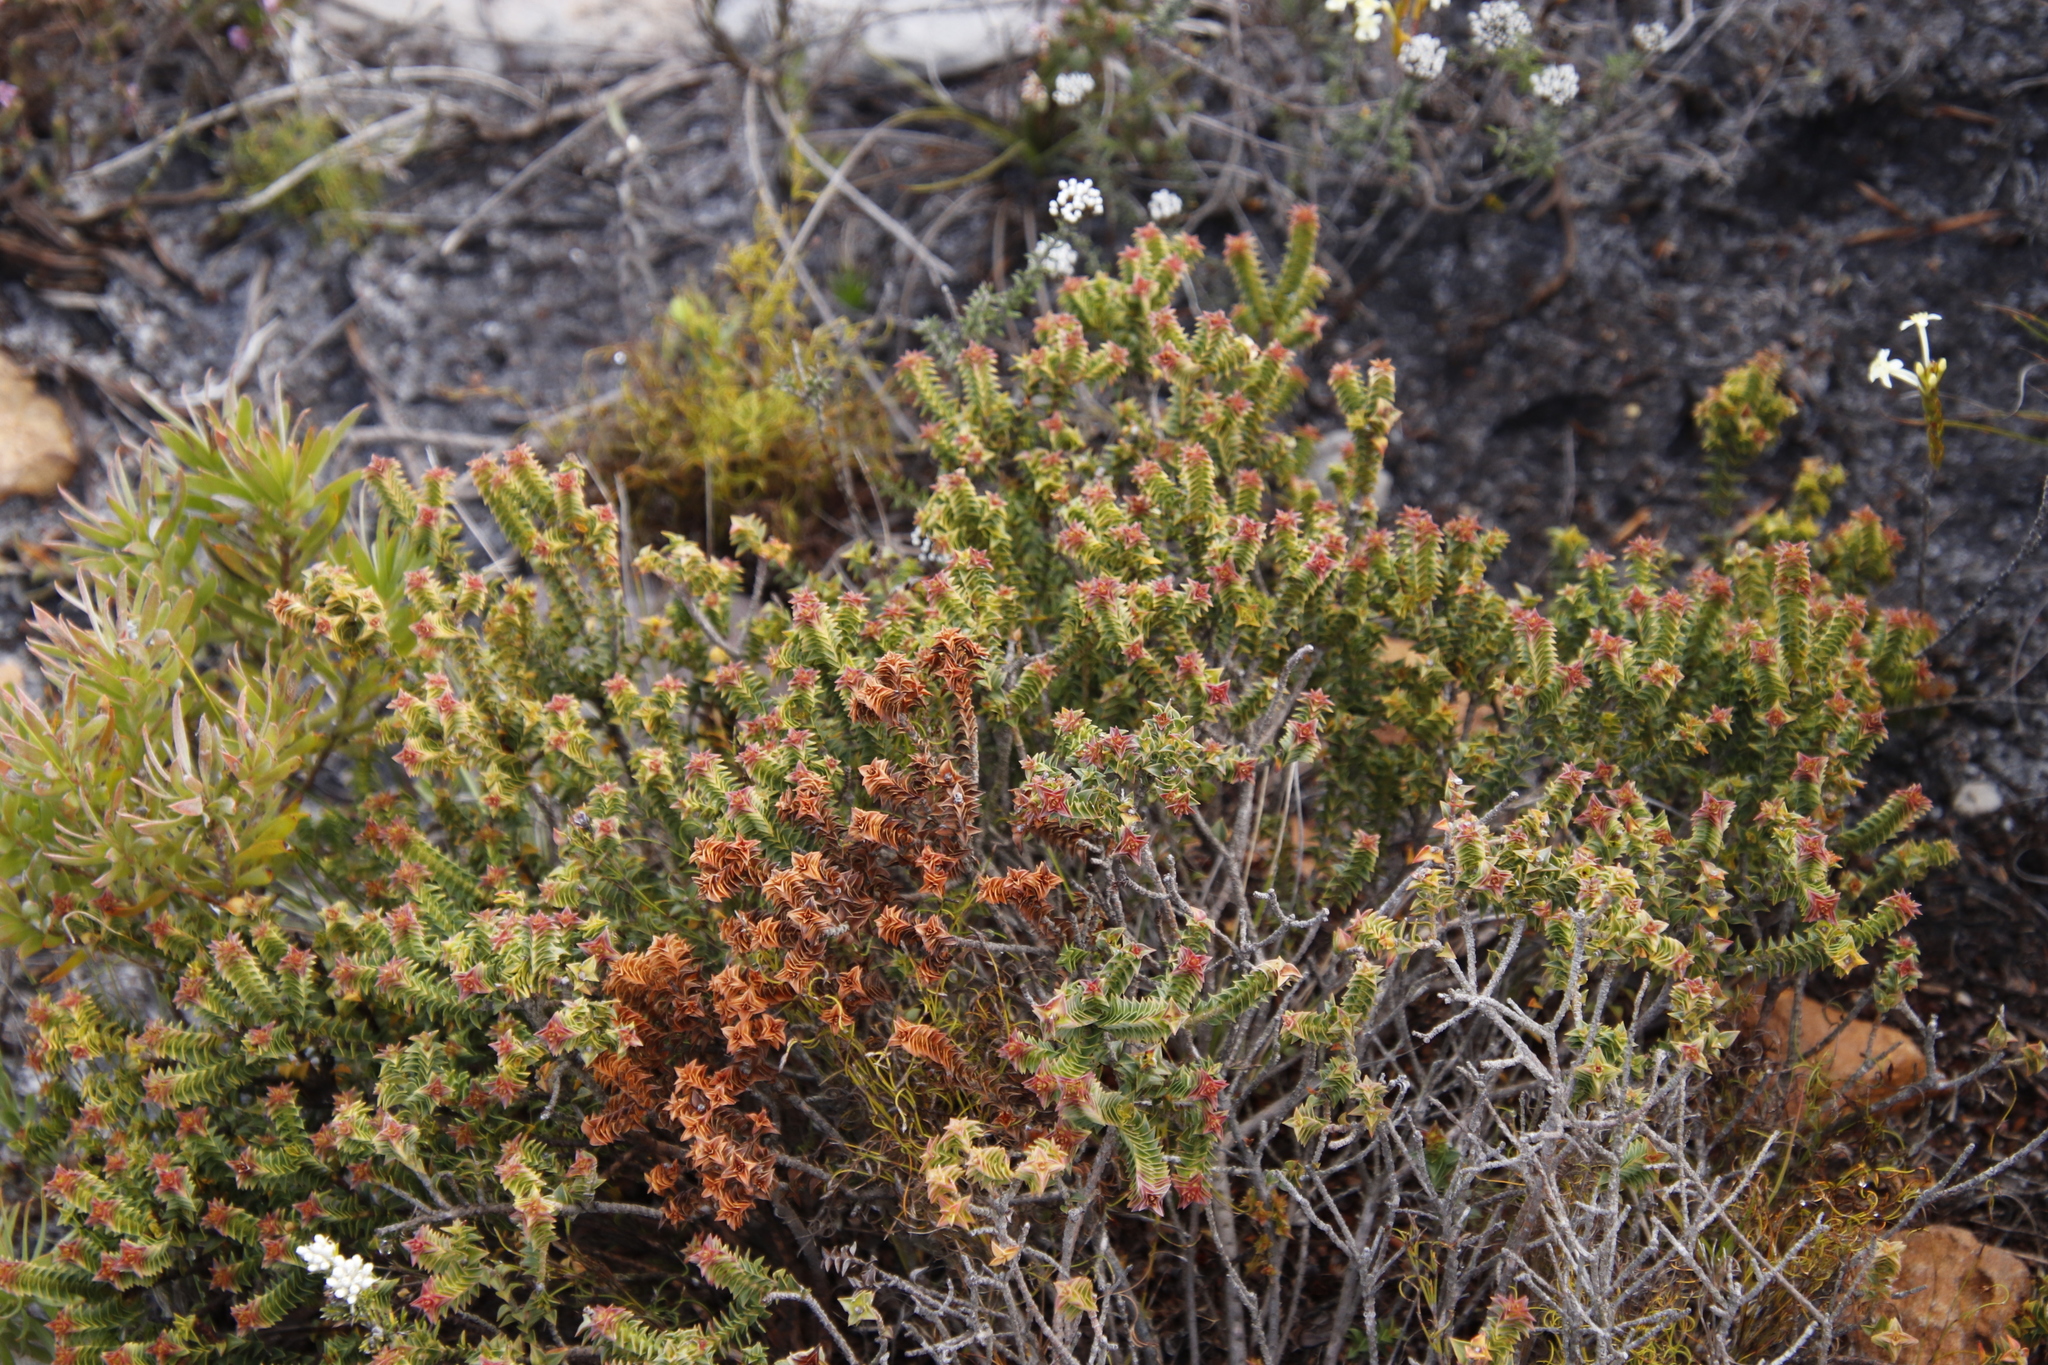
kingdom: Plantae
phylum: Tracheophyta
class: Magnoliopsida
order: Myrtales
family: Penaeaceae
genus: Penaea
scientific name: Penaea mucronata
